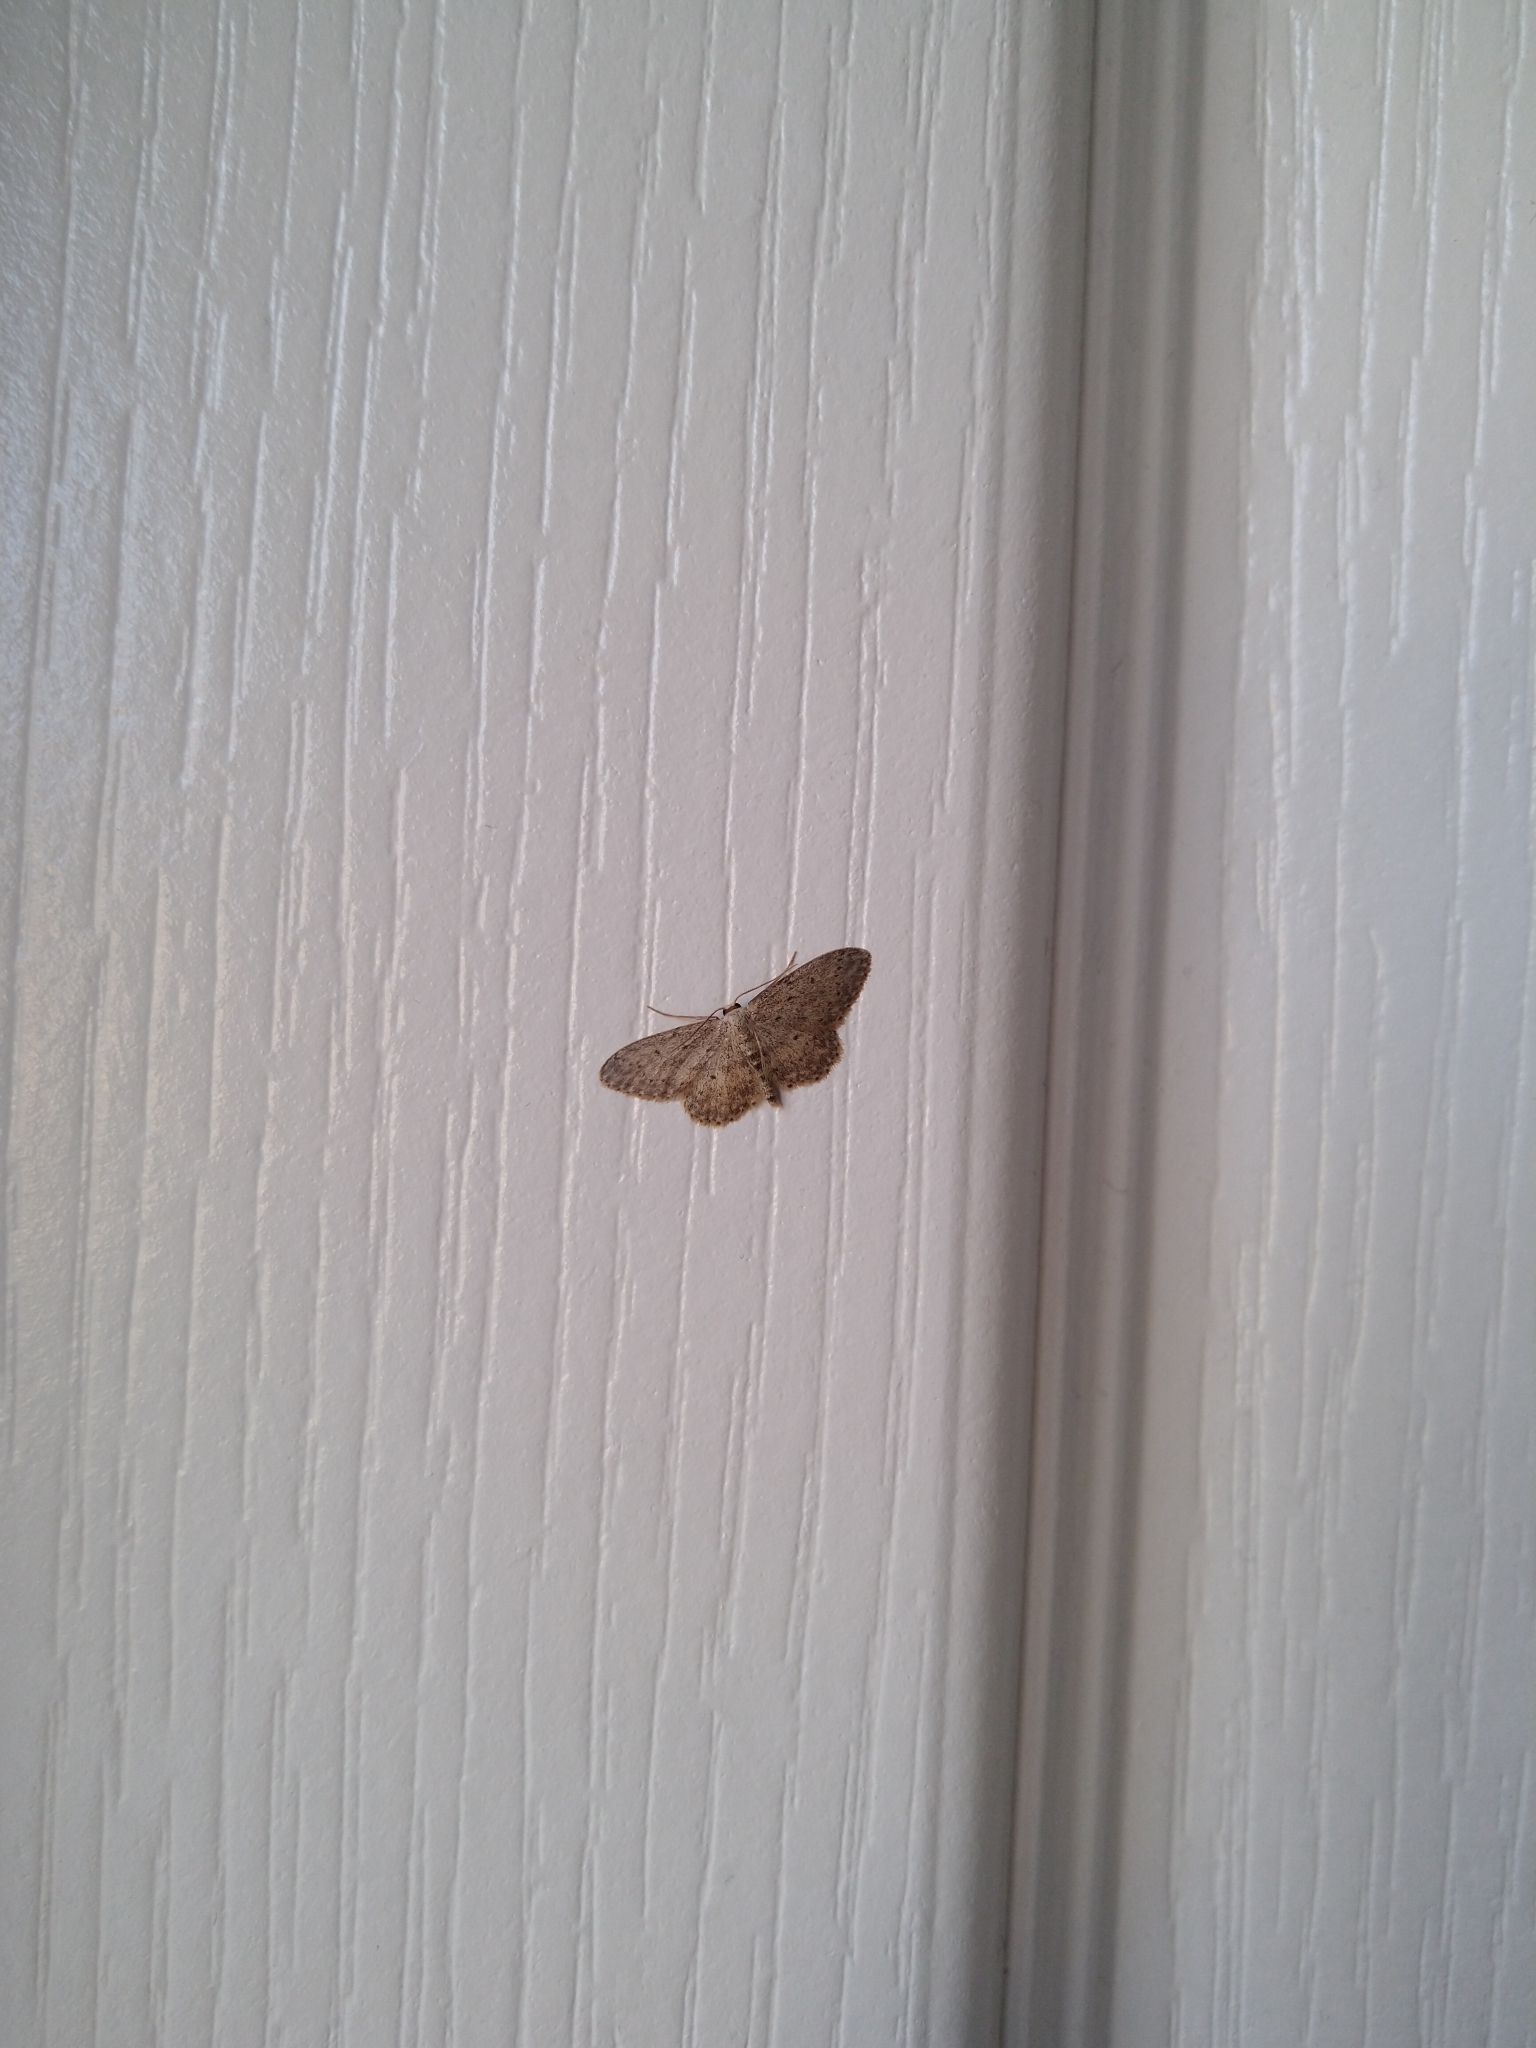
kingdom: Animalia
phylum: Arthropoda
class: Insecta
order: Lepidoptera
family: Geometridae
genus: Idaea
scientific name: Idaea seriata
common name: Small dusty wave
